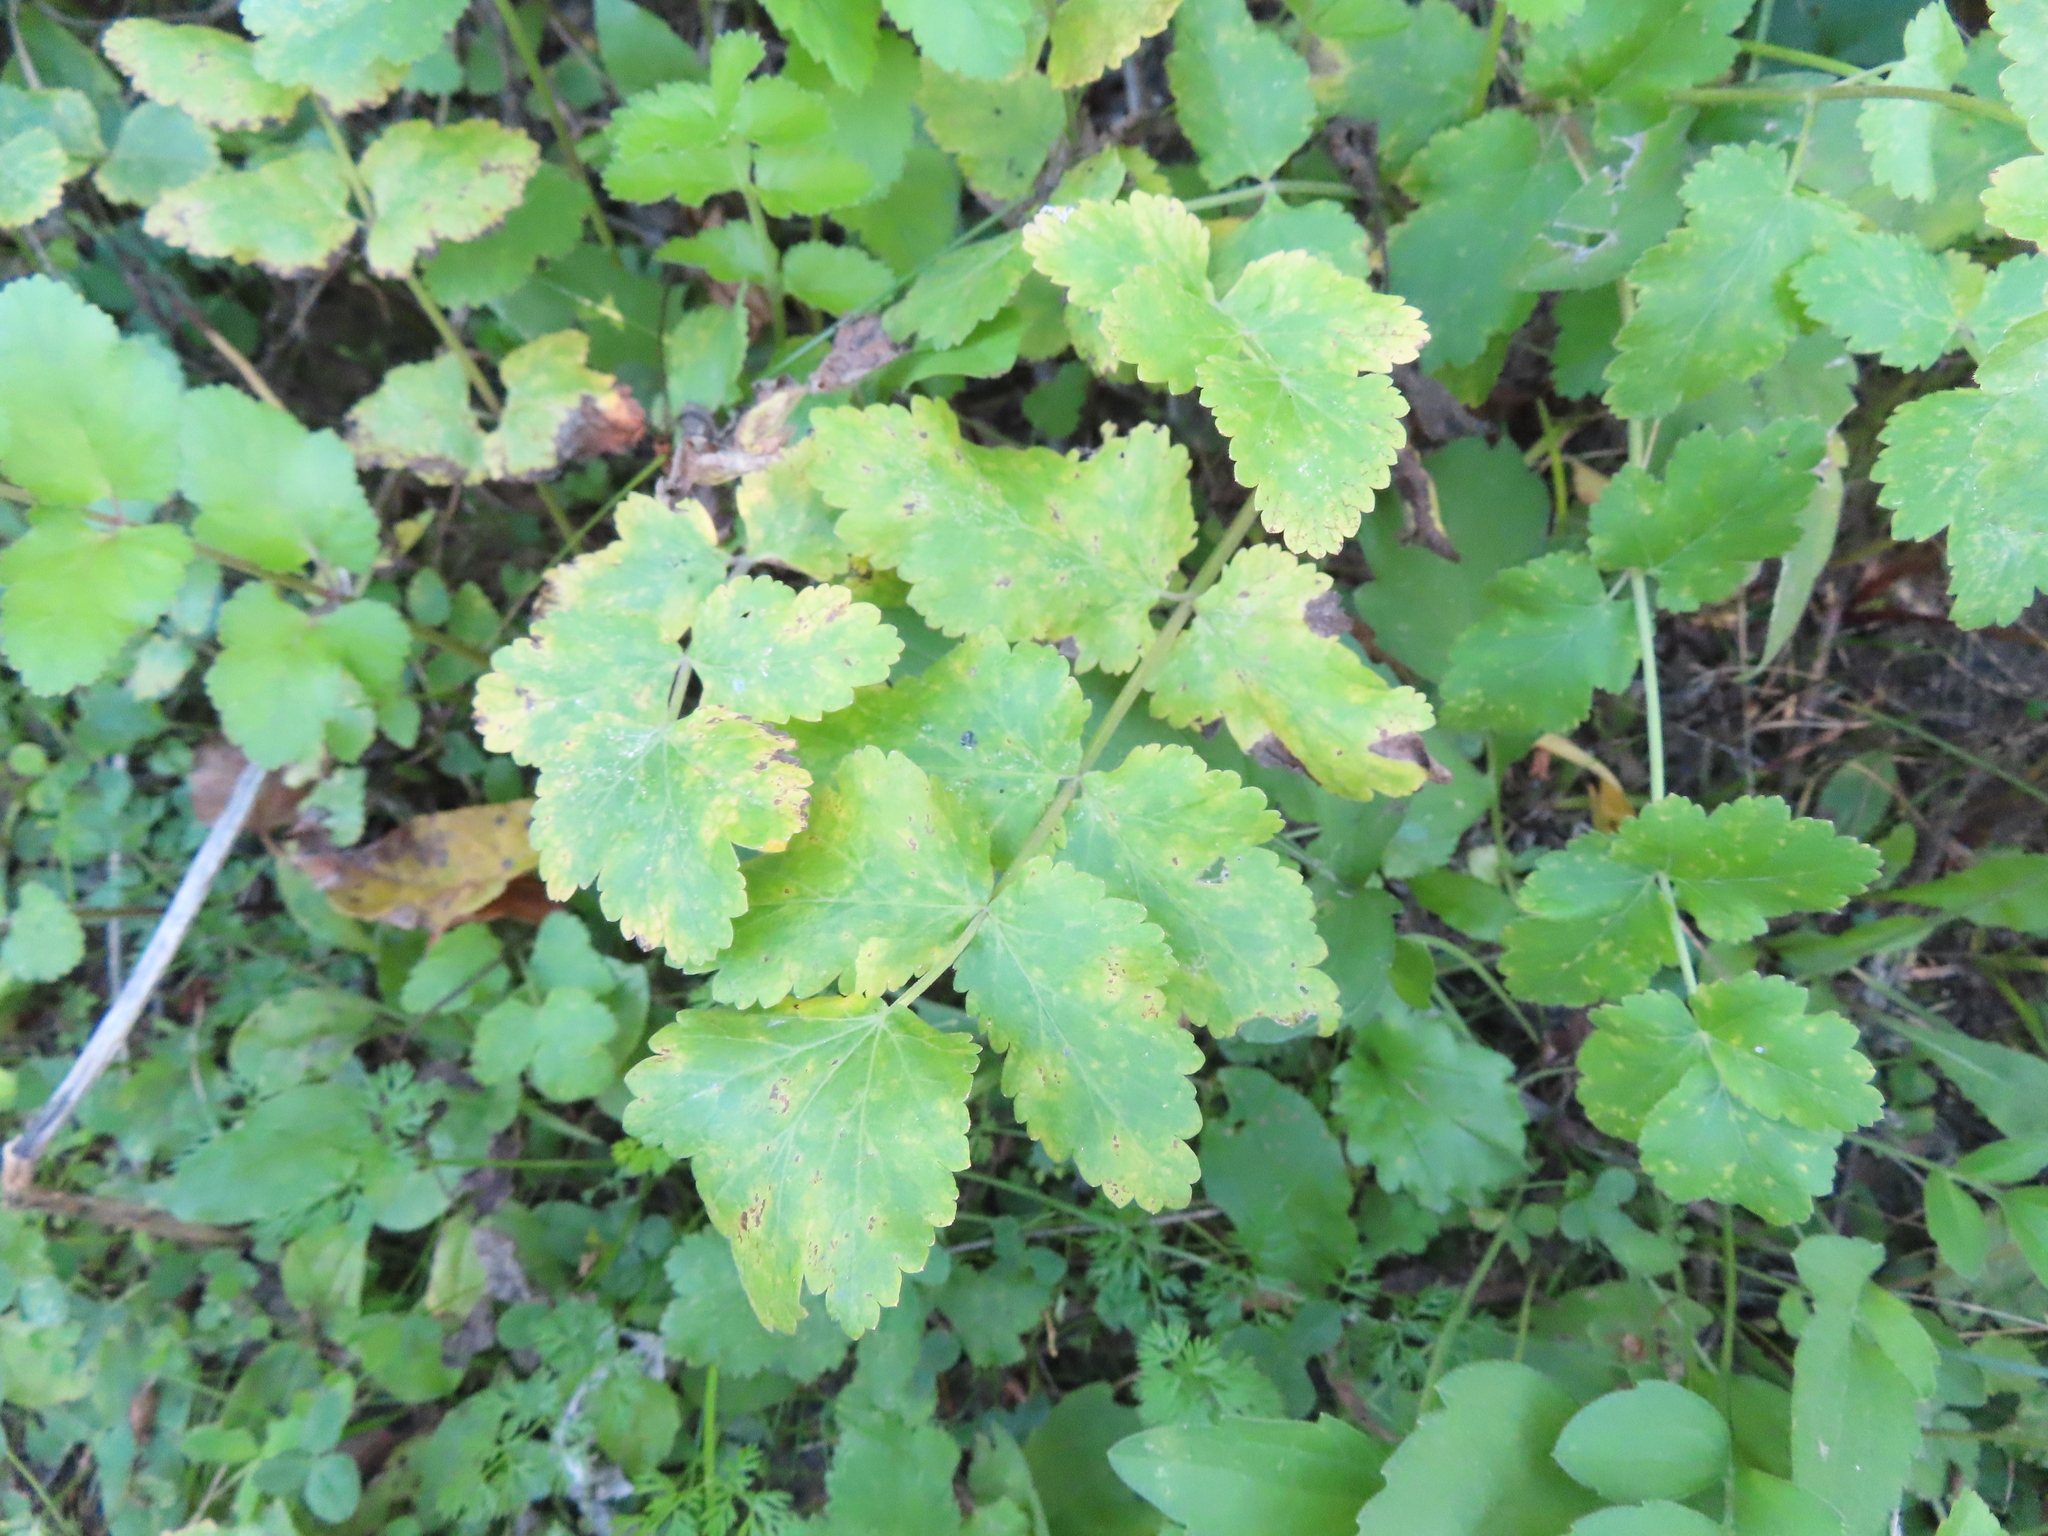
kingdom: Plantae
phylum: Tracheophyta
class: Magnoliopsida
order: Apiales
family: Apiaceae
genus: Pastinaca
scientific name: Pastinaca sativa
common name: Wild parsnip
